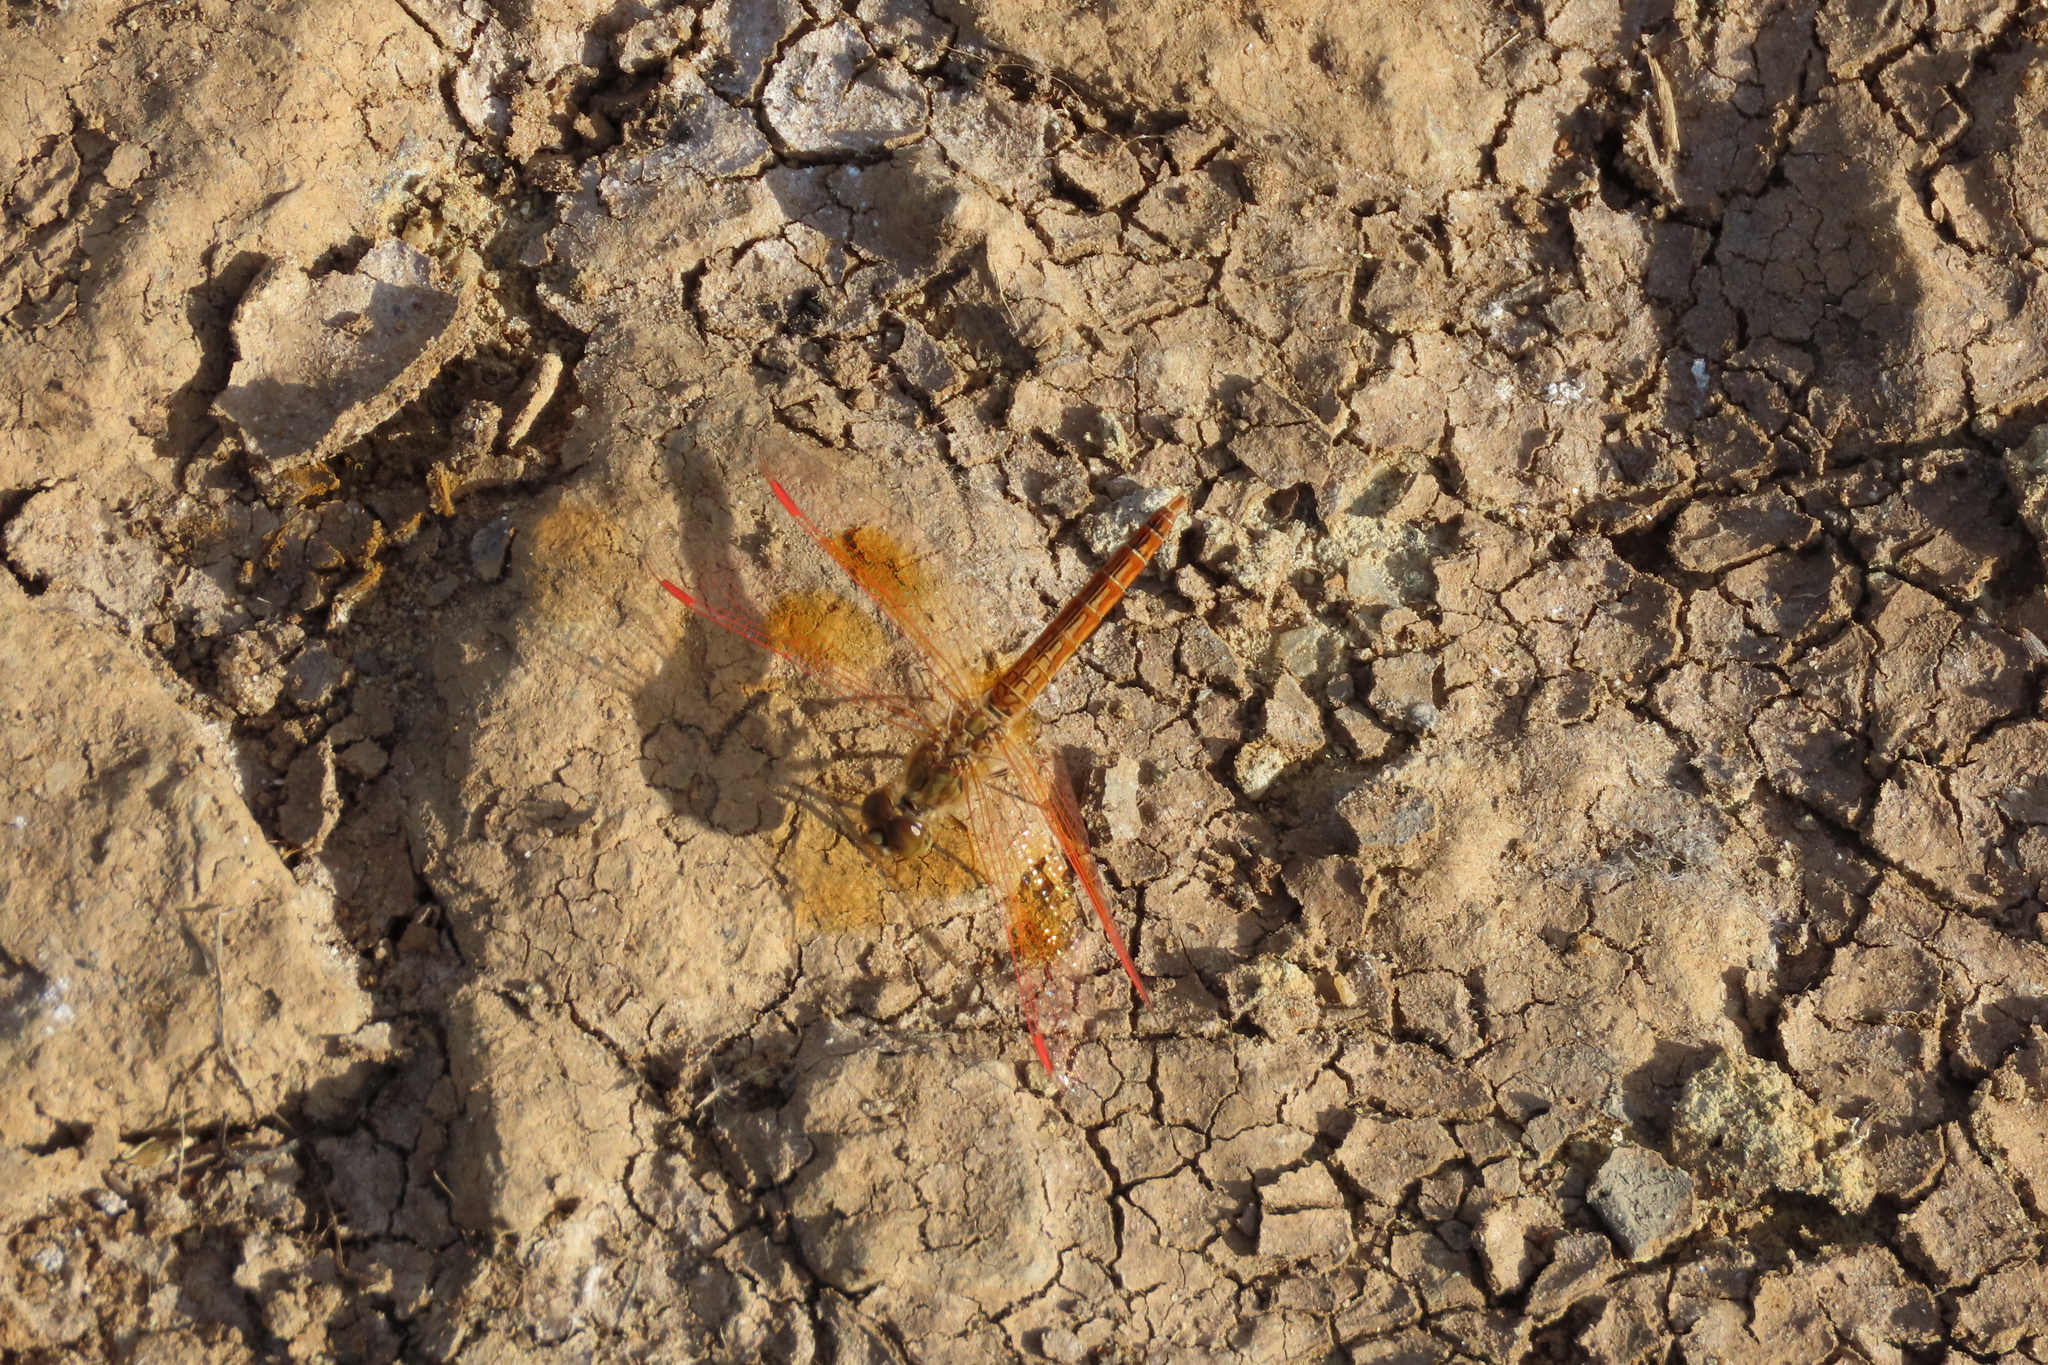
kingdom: Animalia
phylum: Arthropoda
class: Insecta
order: Odonata
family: Libellulidae
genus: Brachythemis
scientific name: Brachythemis contaminata
